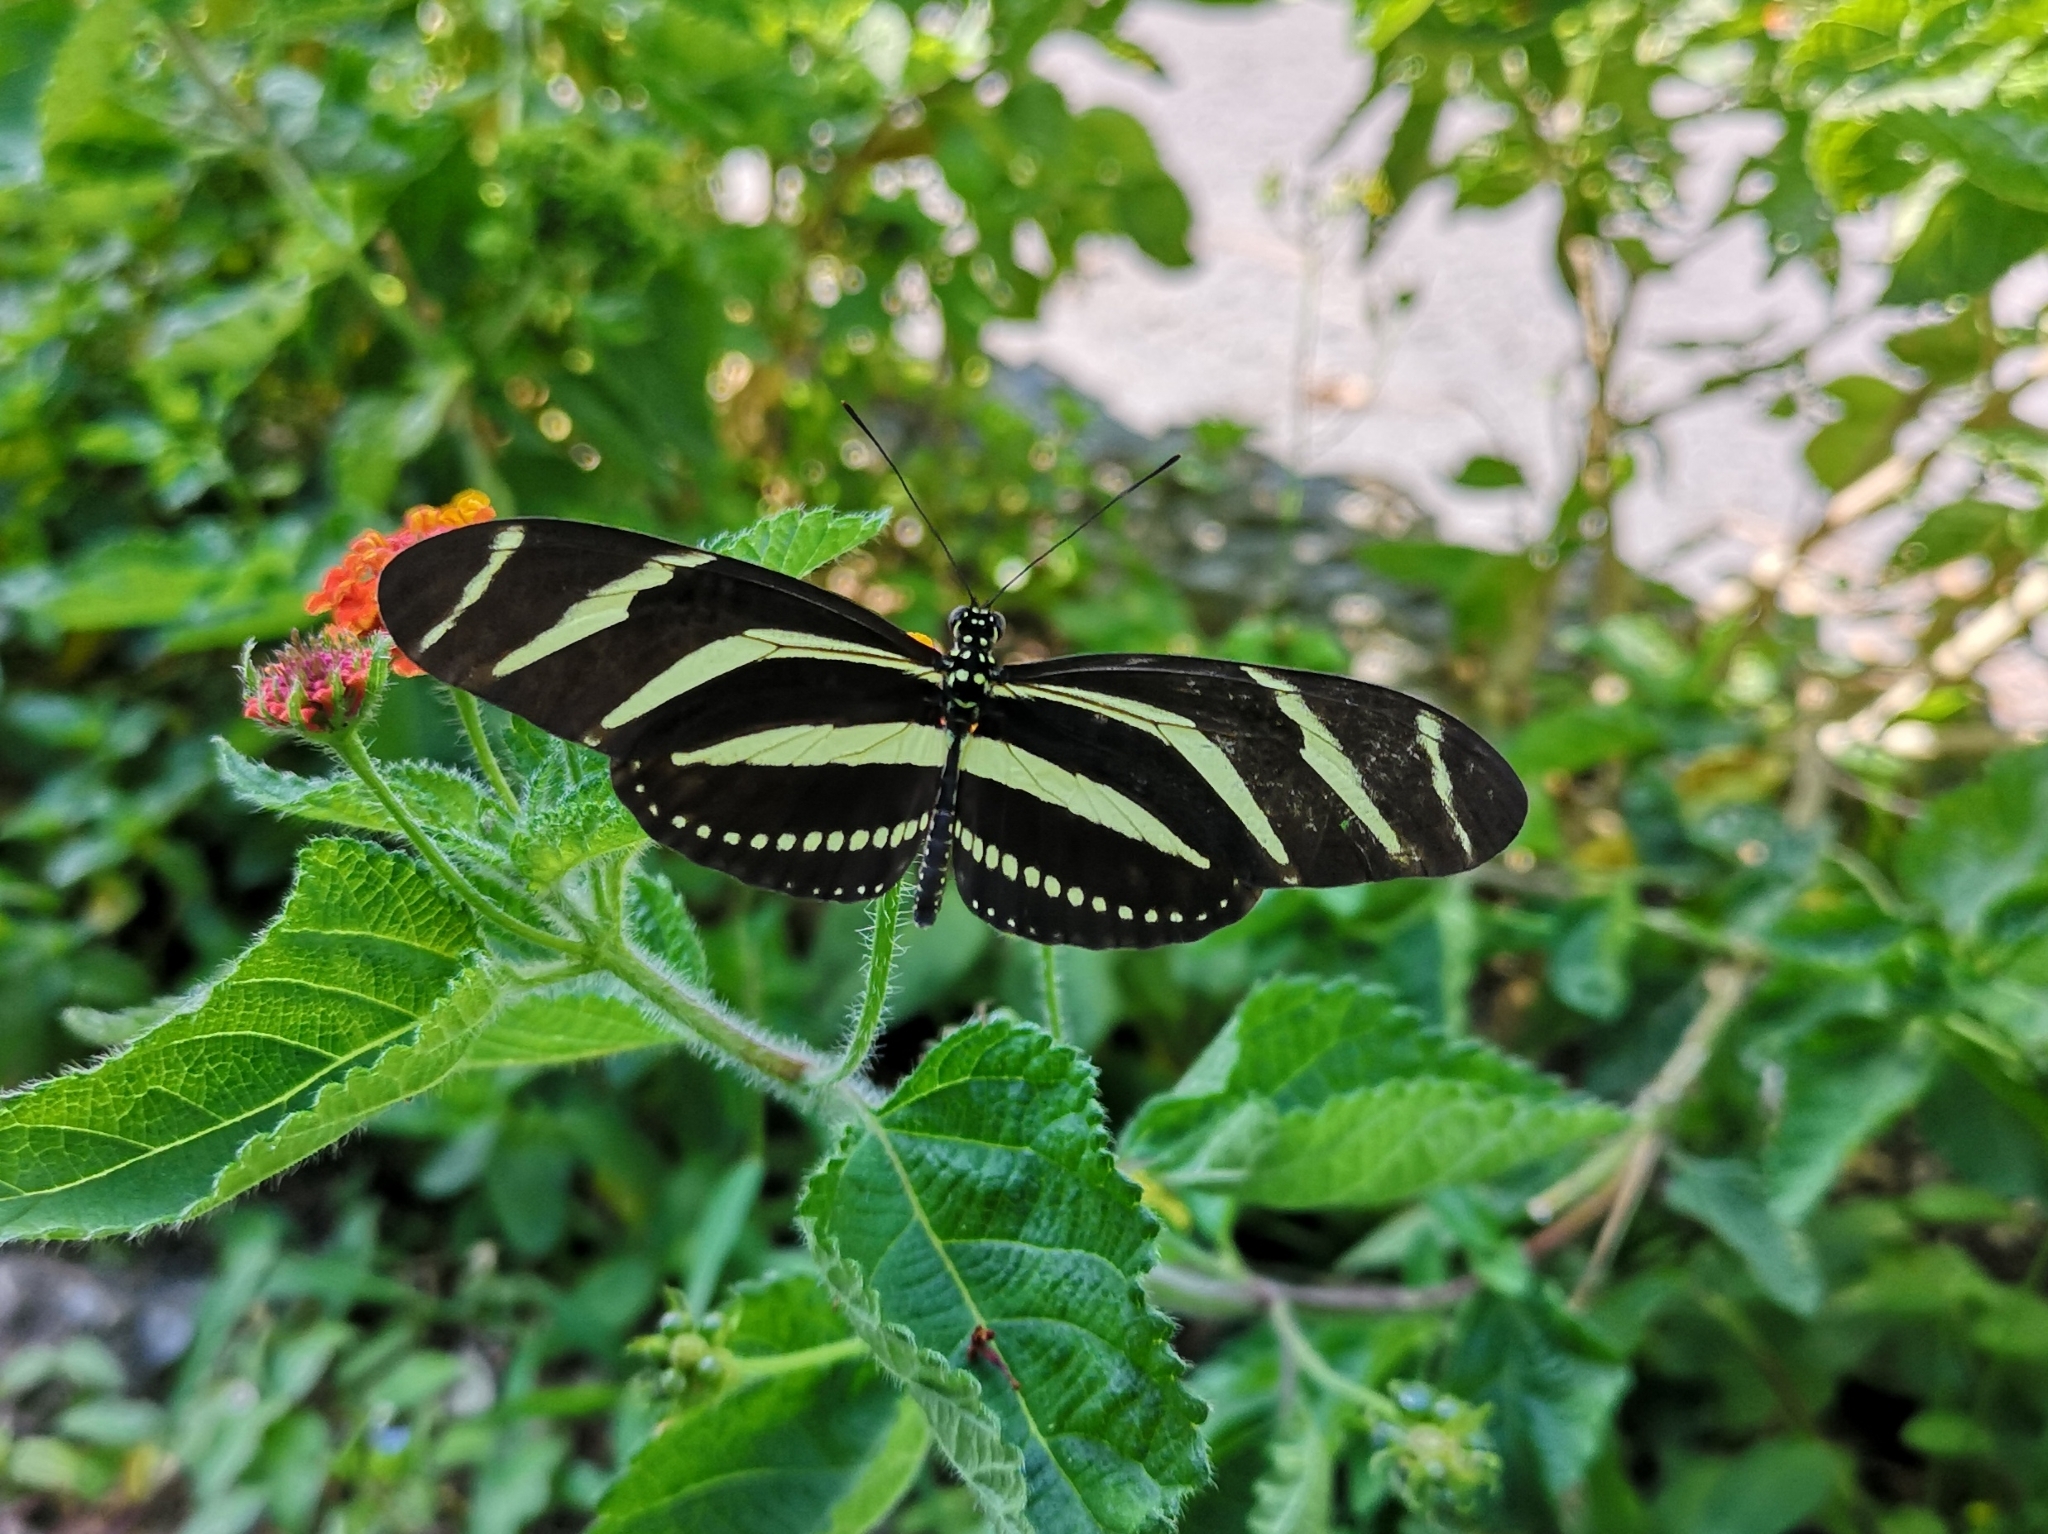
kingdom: Animalia
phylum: Arthropoda
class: Insecta
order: Lepidoptera
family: Nymphalidae
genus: Heliconius
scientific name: Heliconius charithonia
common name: Zebra long wing
